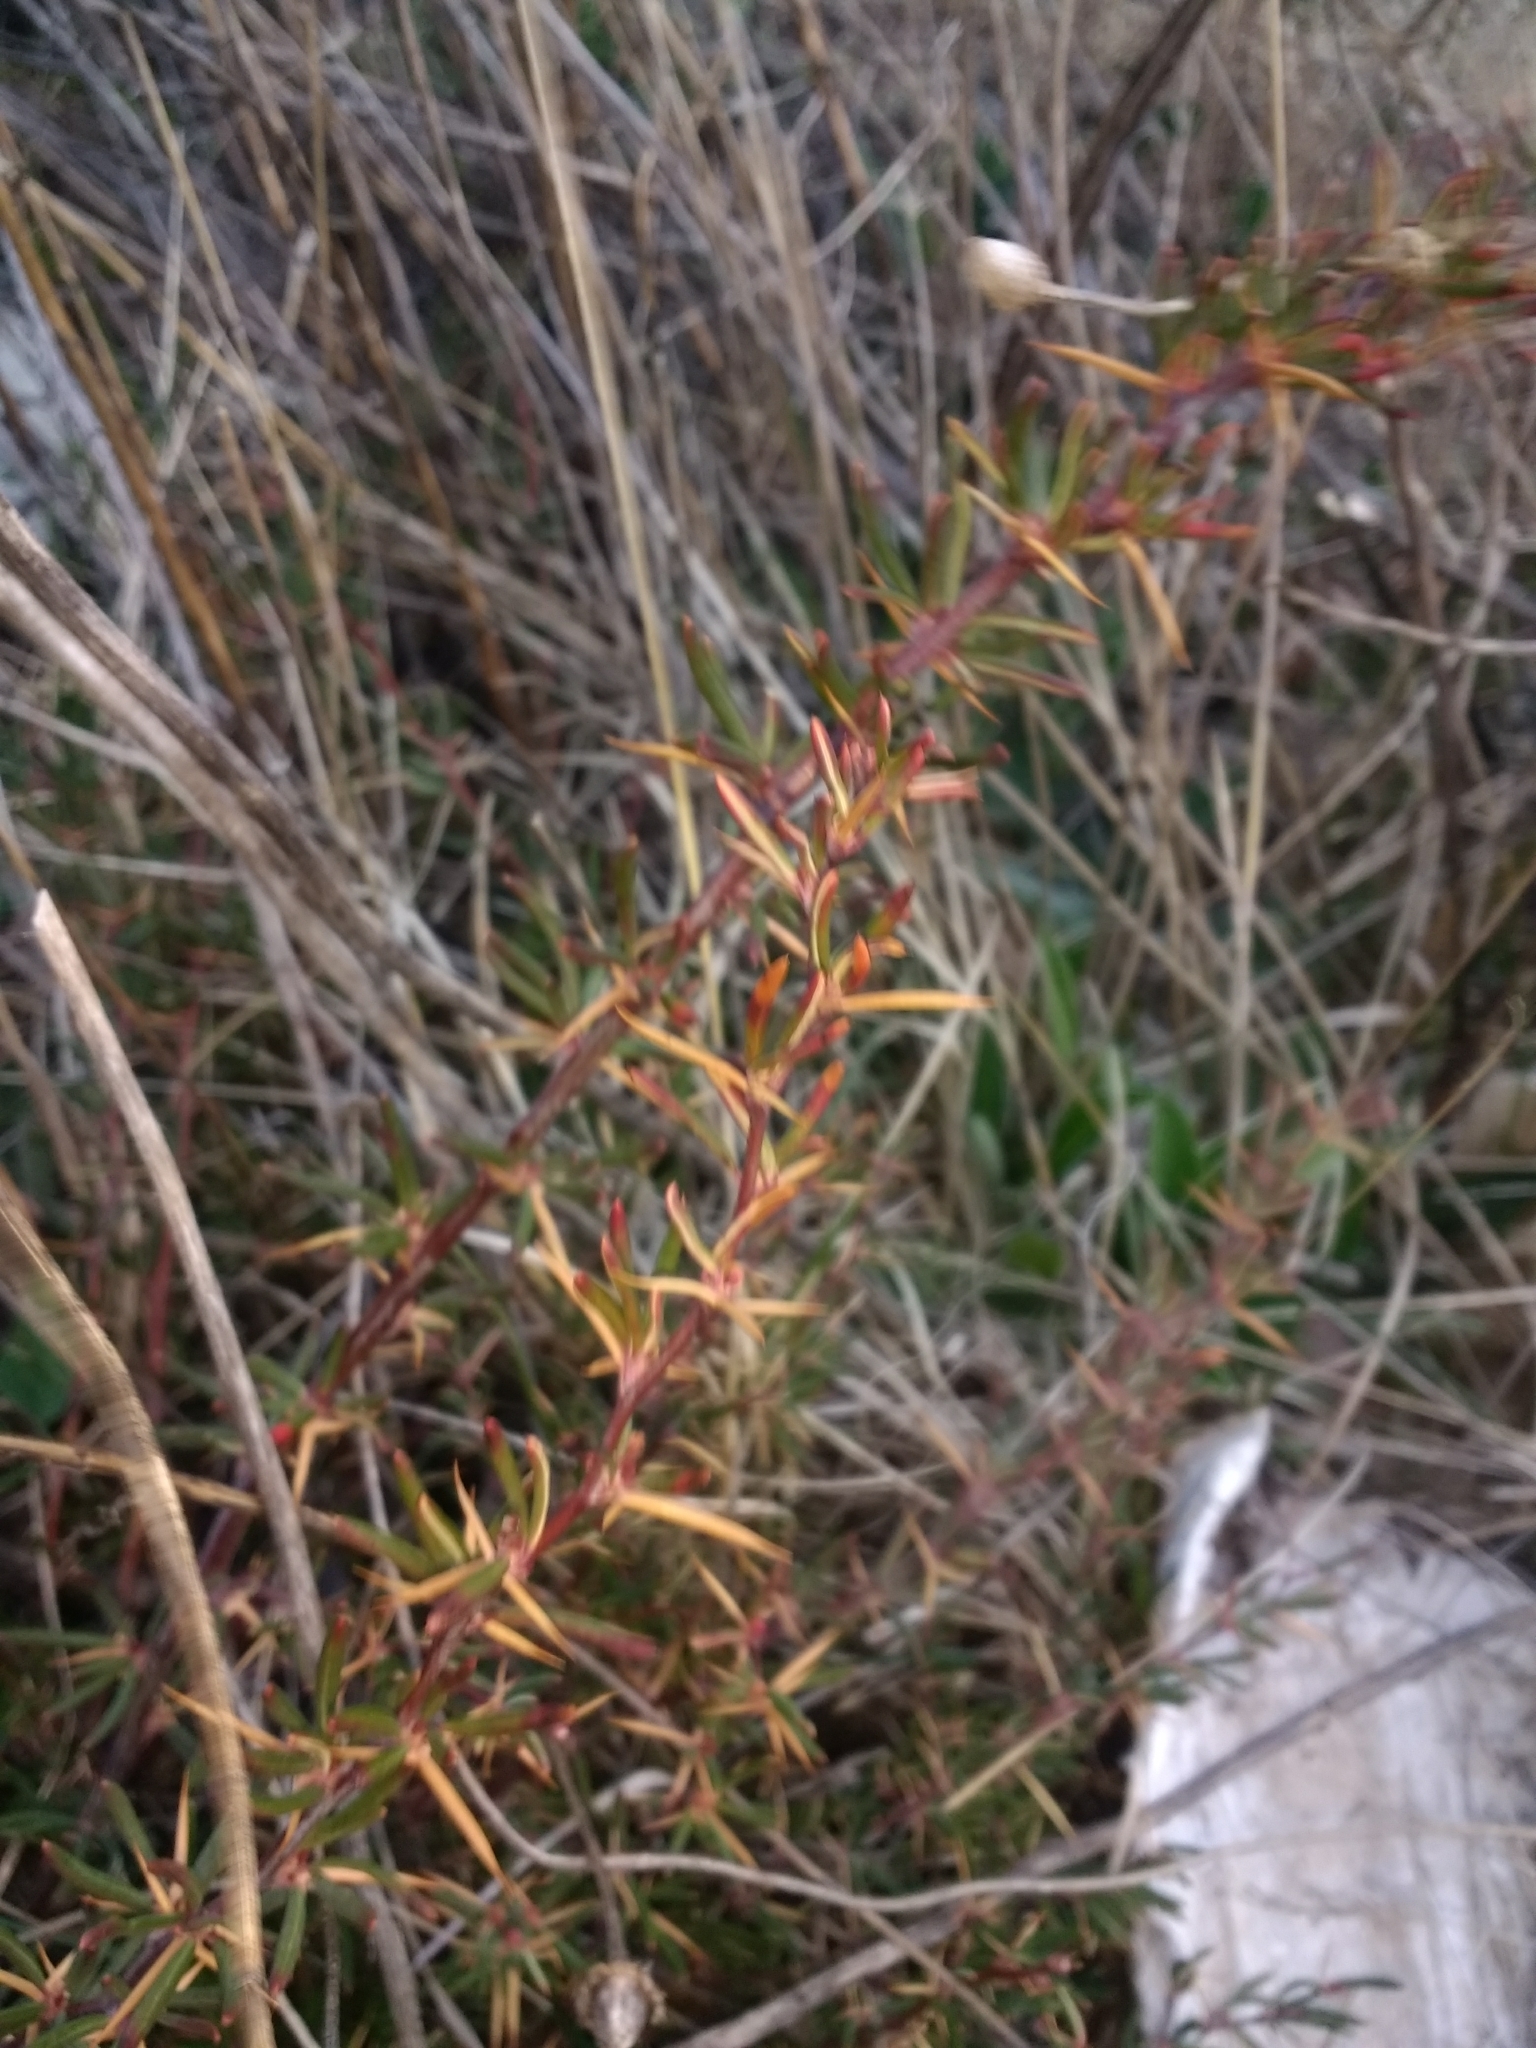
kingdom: Plantae
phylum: Tracheophyta
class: Magnoliopsida
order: Ranunculales
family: Berberidaceae
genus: Berberis
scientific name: Berberis empetrifolia
